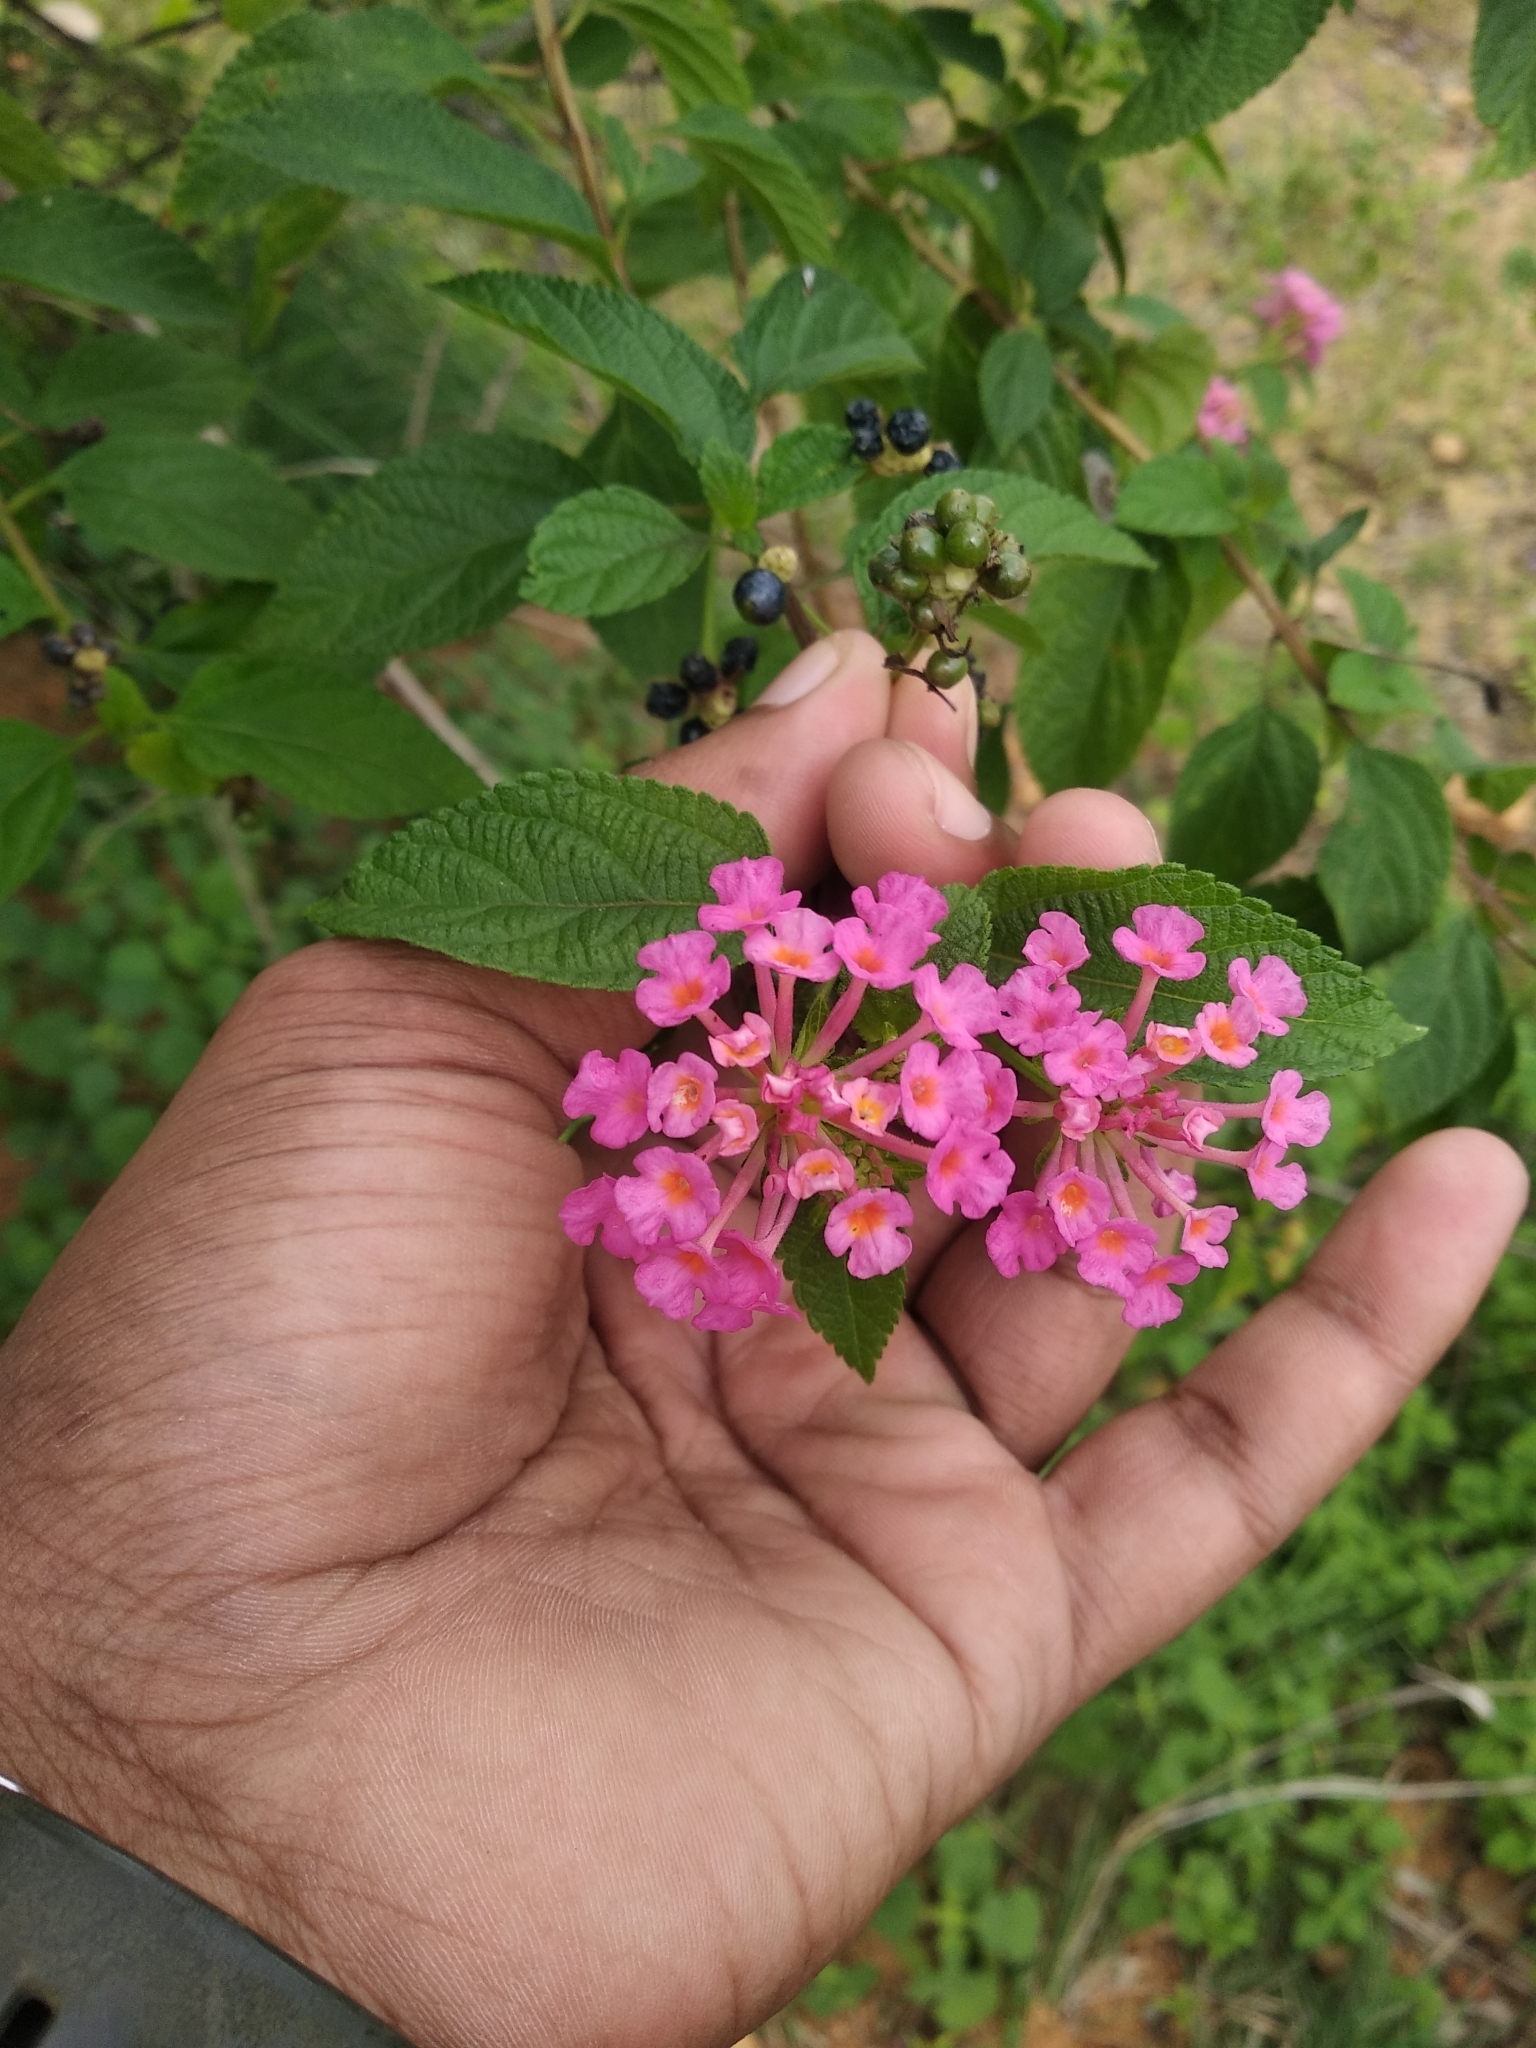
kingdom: Plantae
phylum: Tracheophyta
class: Magnoliopsida
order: Lamiales
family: Verbenaceae
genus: Lantana
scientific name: Lantana camara
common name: Lantana
